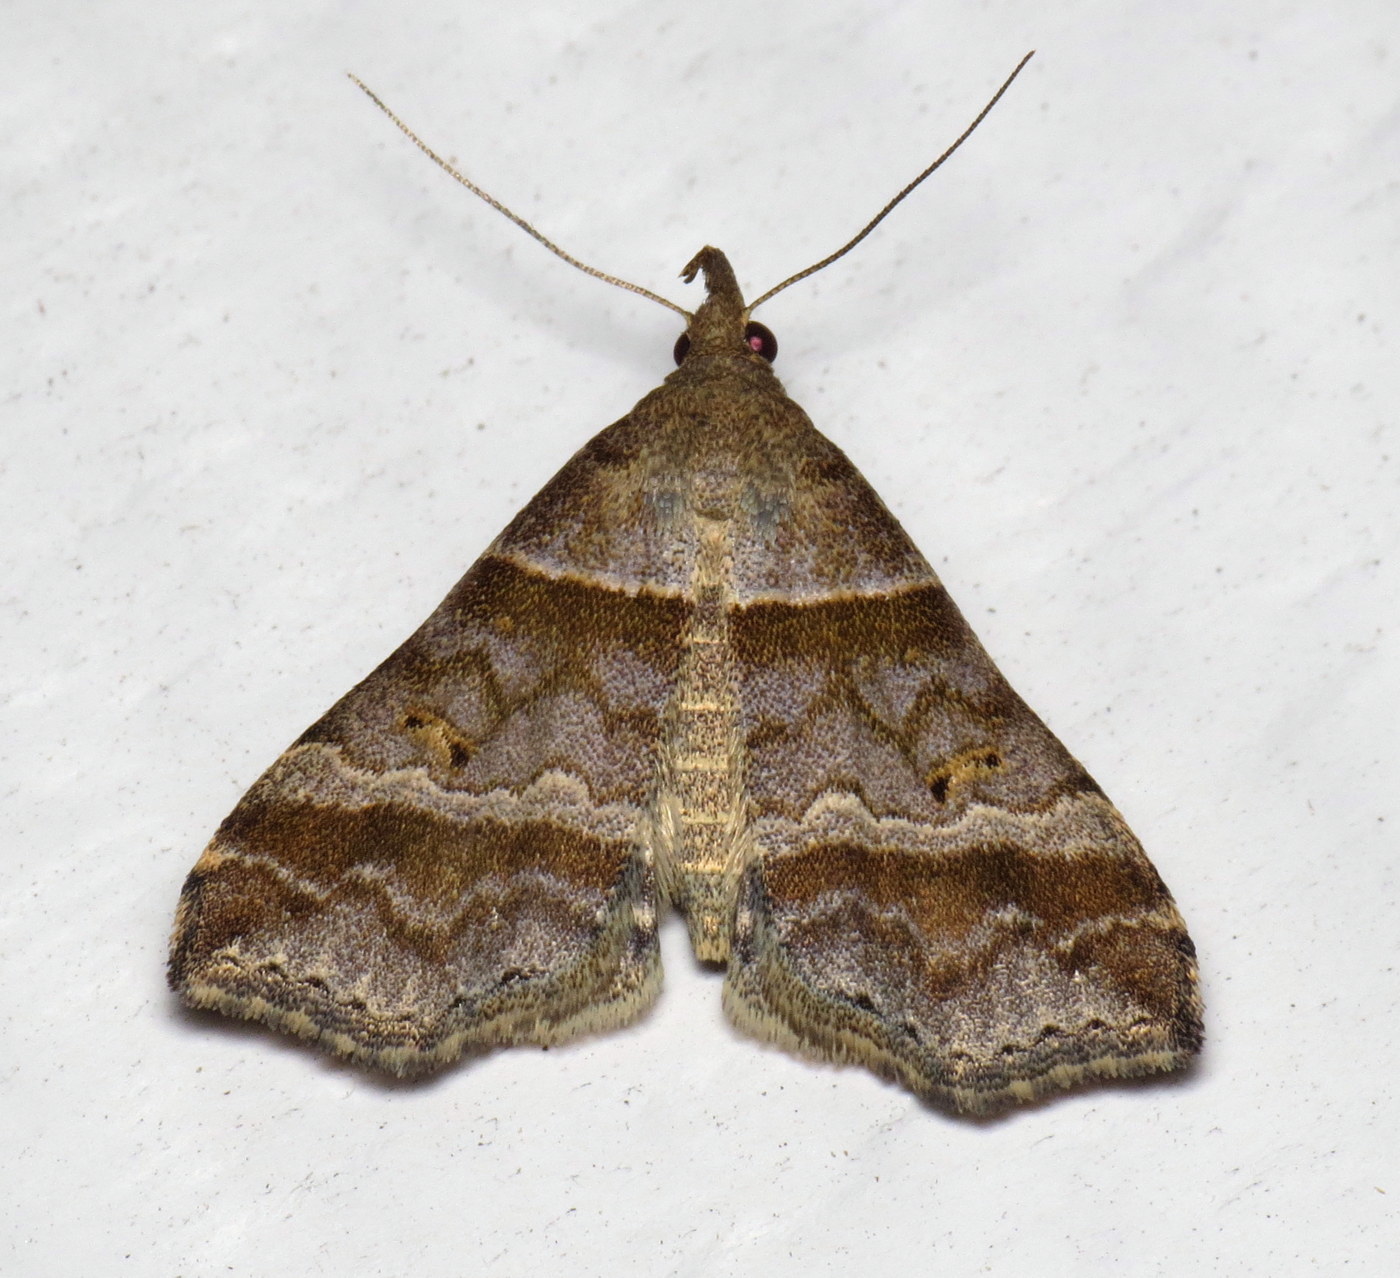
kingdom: Animalia
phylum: Arthropoda
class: Insecta
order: Lepidoptera
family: Erebidae
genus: Phaeolita
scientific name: Phaeolita pyramusalis
